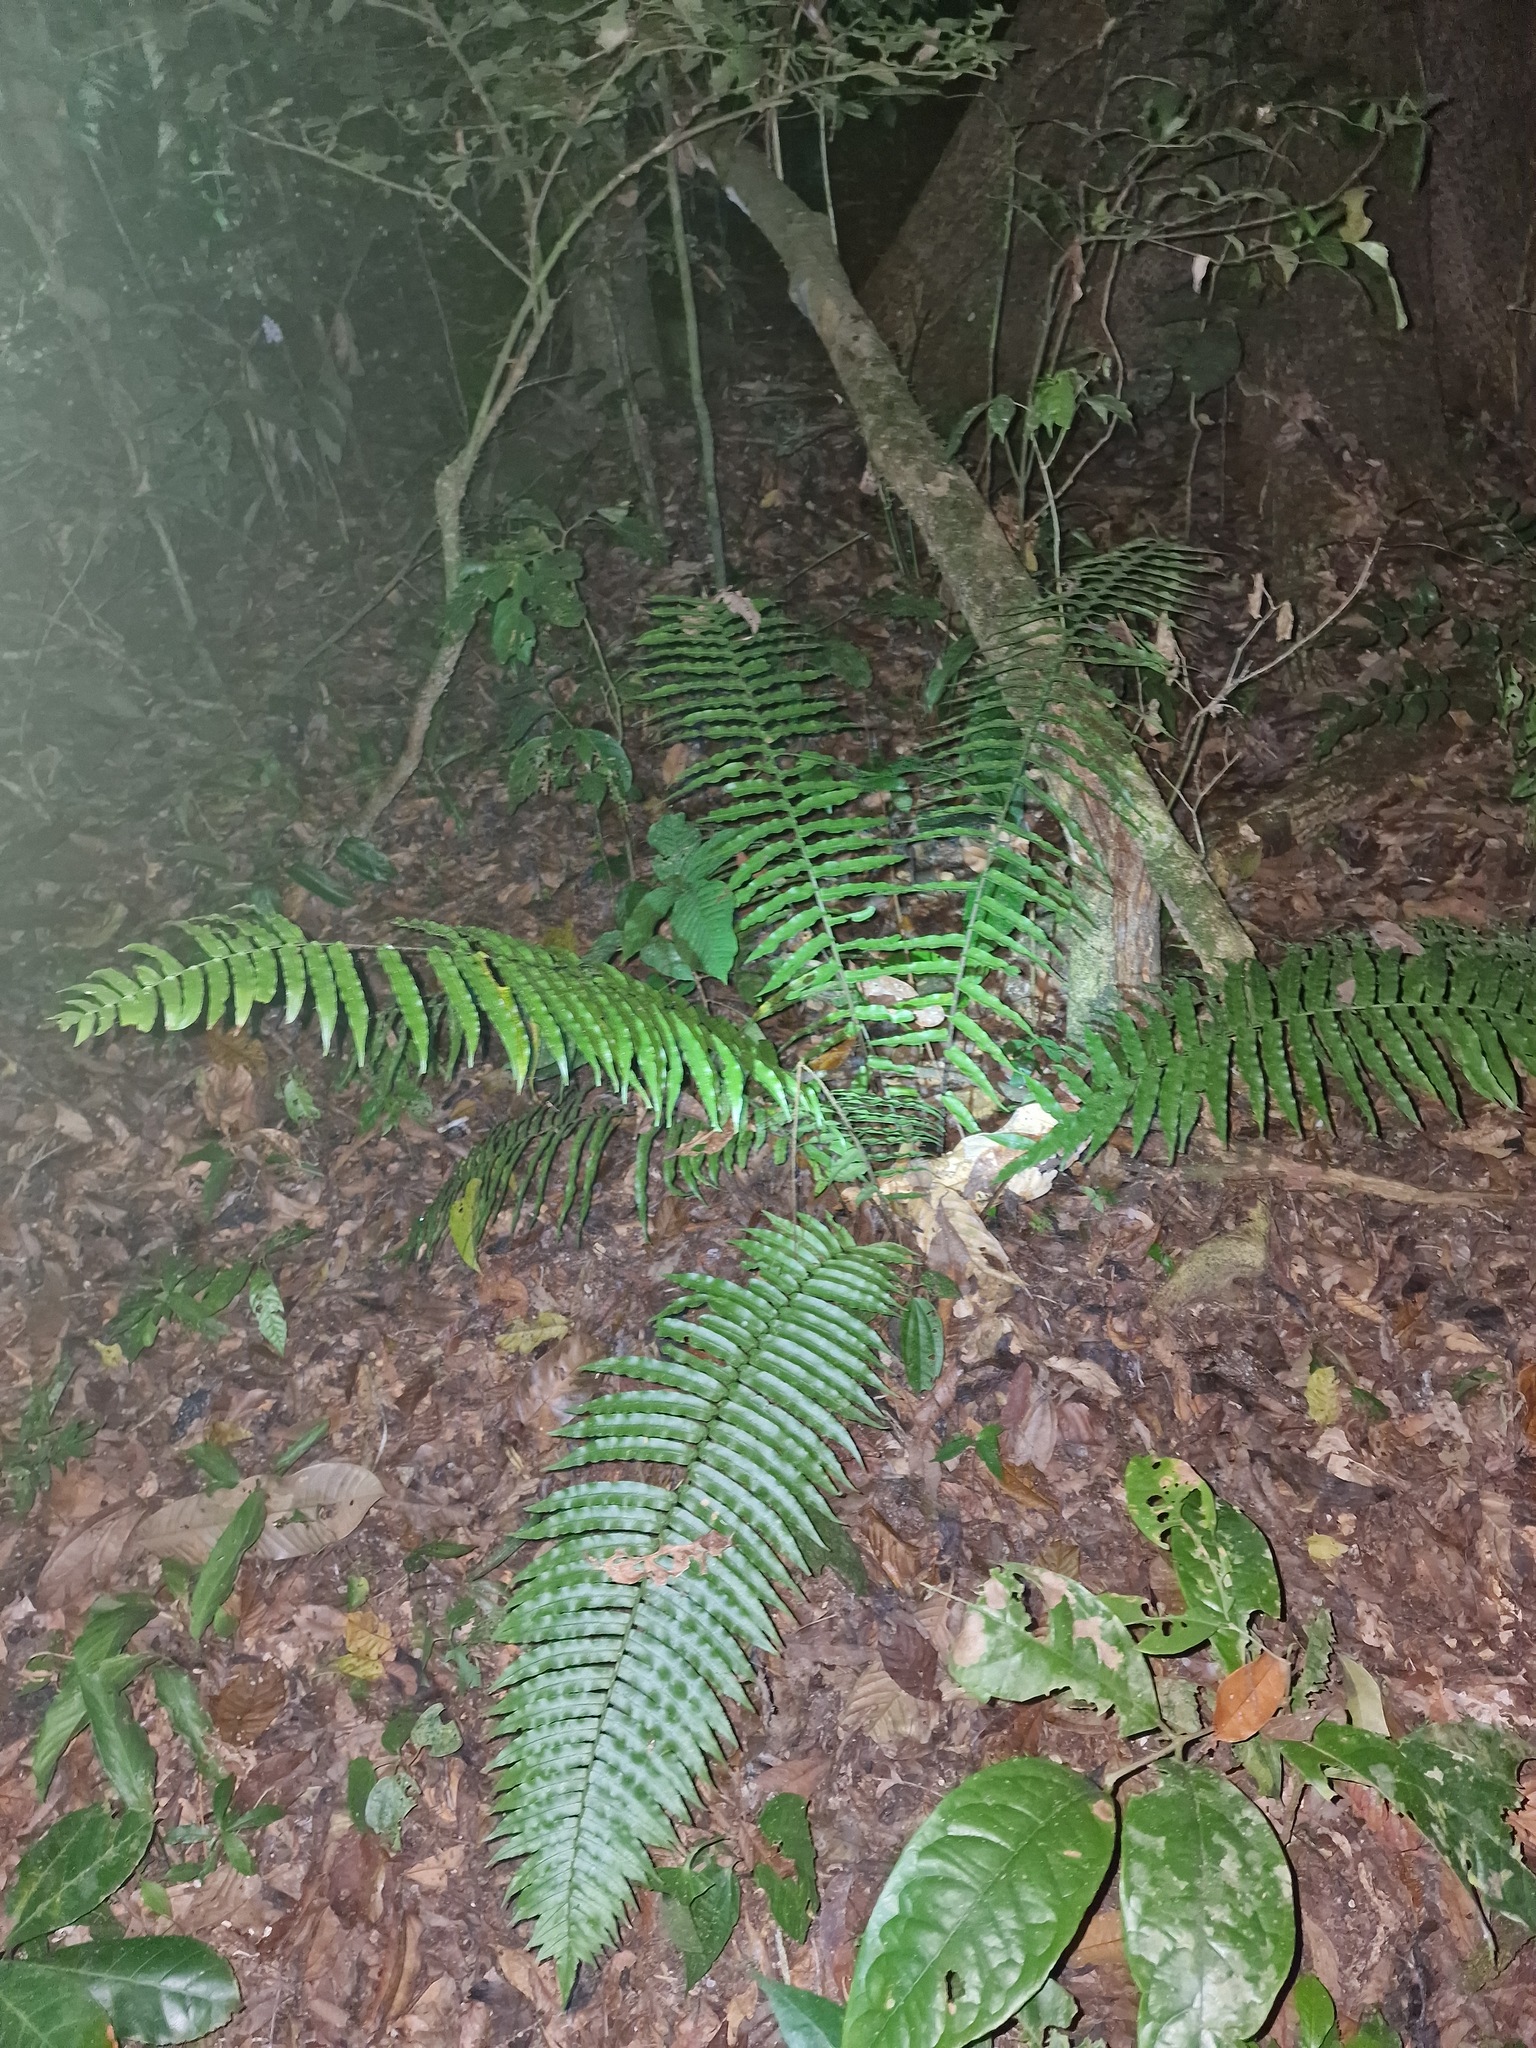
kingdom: Plantae
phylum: Tracheophyta
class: Polypodiopsida
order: Polypodiales
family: Lomariopsidaceae
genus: Cyclopeltis
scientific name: Cyclopeltis semicordata
